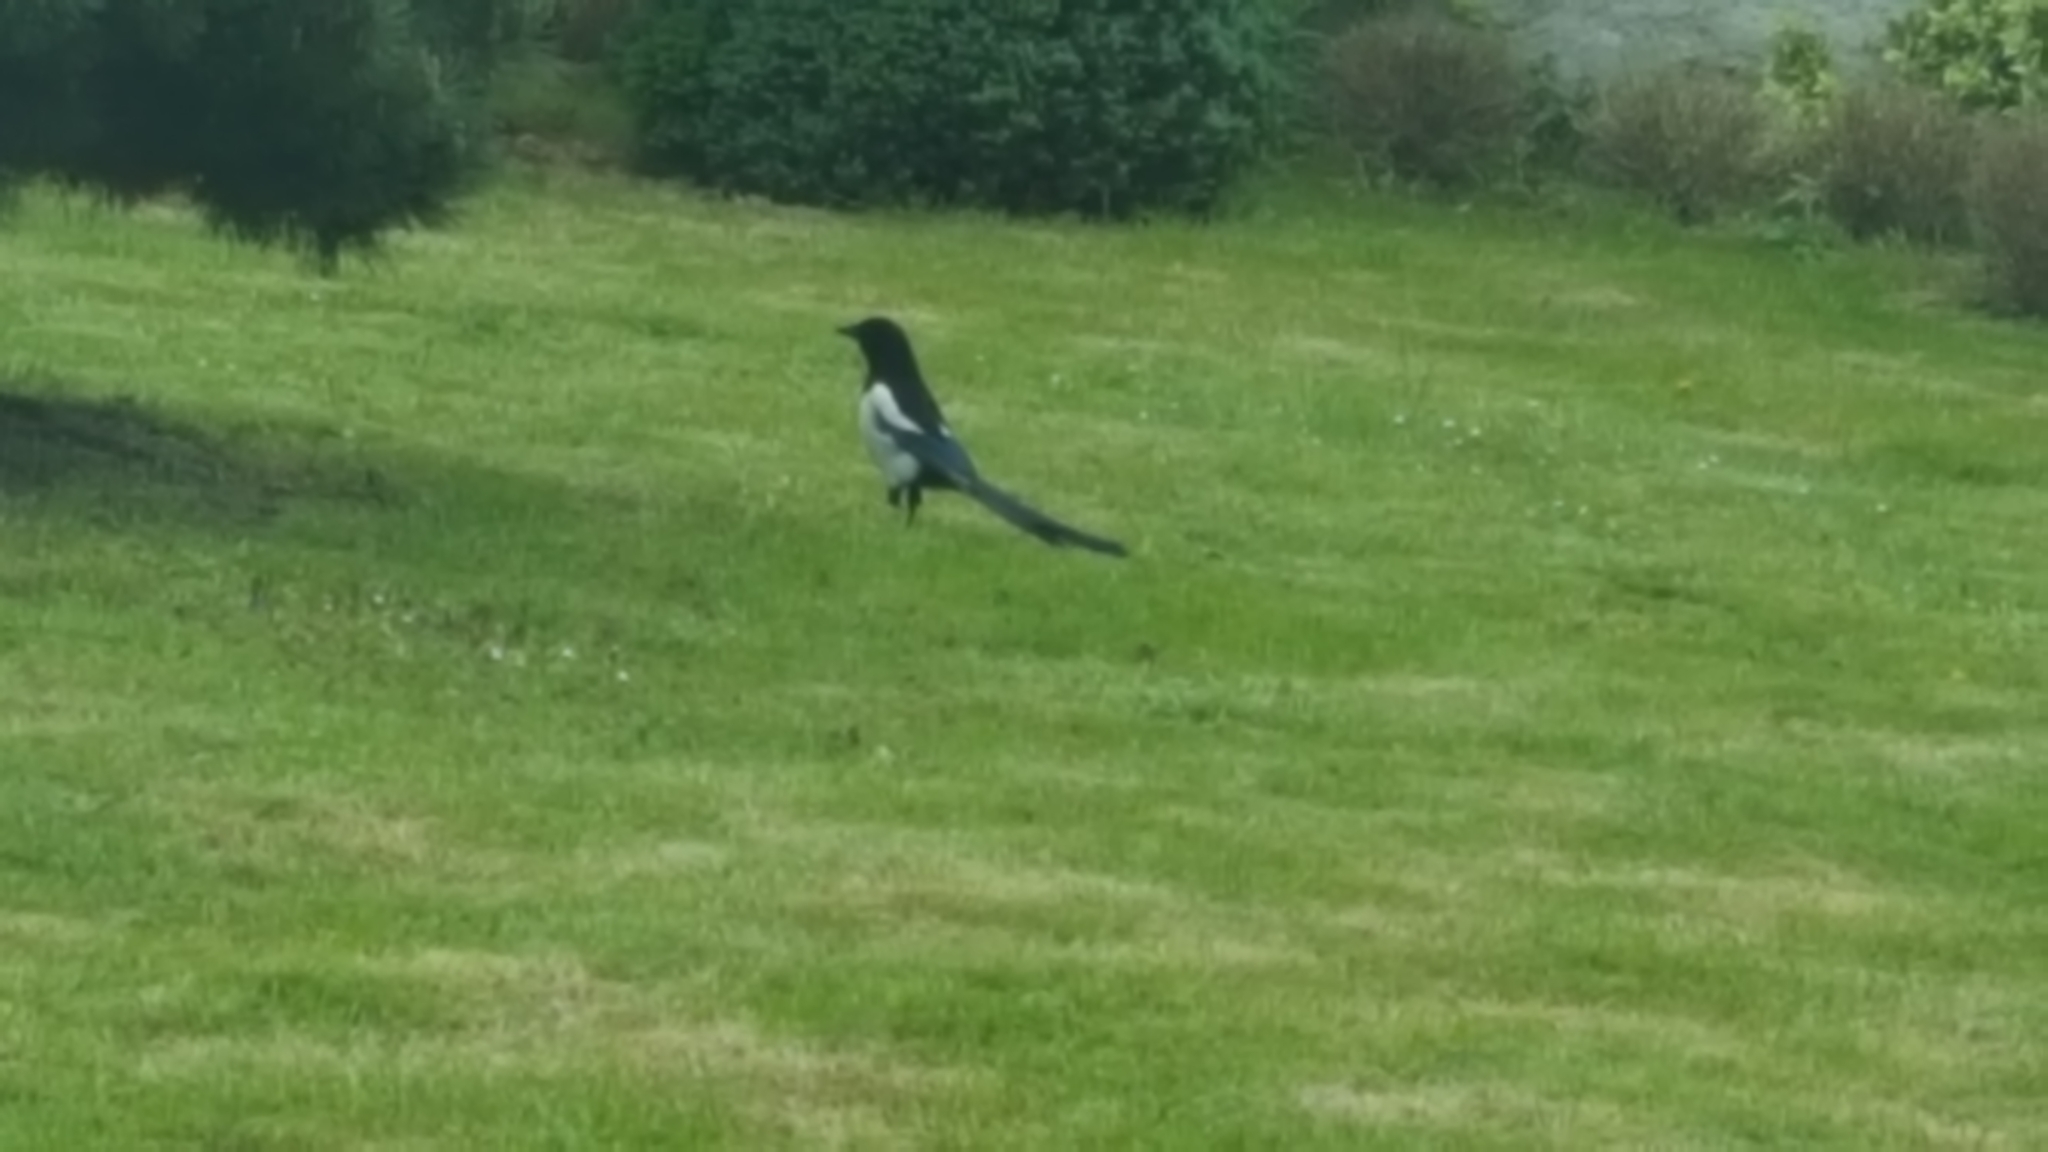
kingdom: Animalia
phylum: Chordata
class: Aves
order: Passeriformes
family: Corvidae
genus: Pica
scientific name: Pica pica
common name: Eurasian magpie
